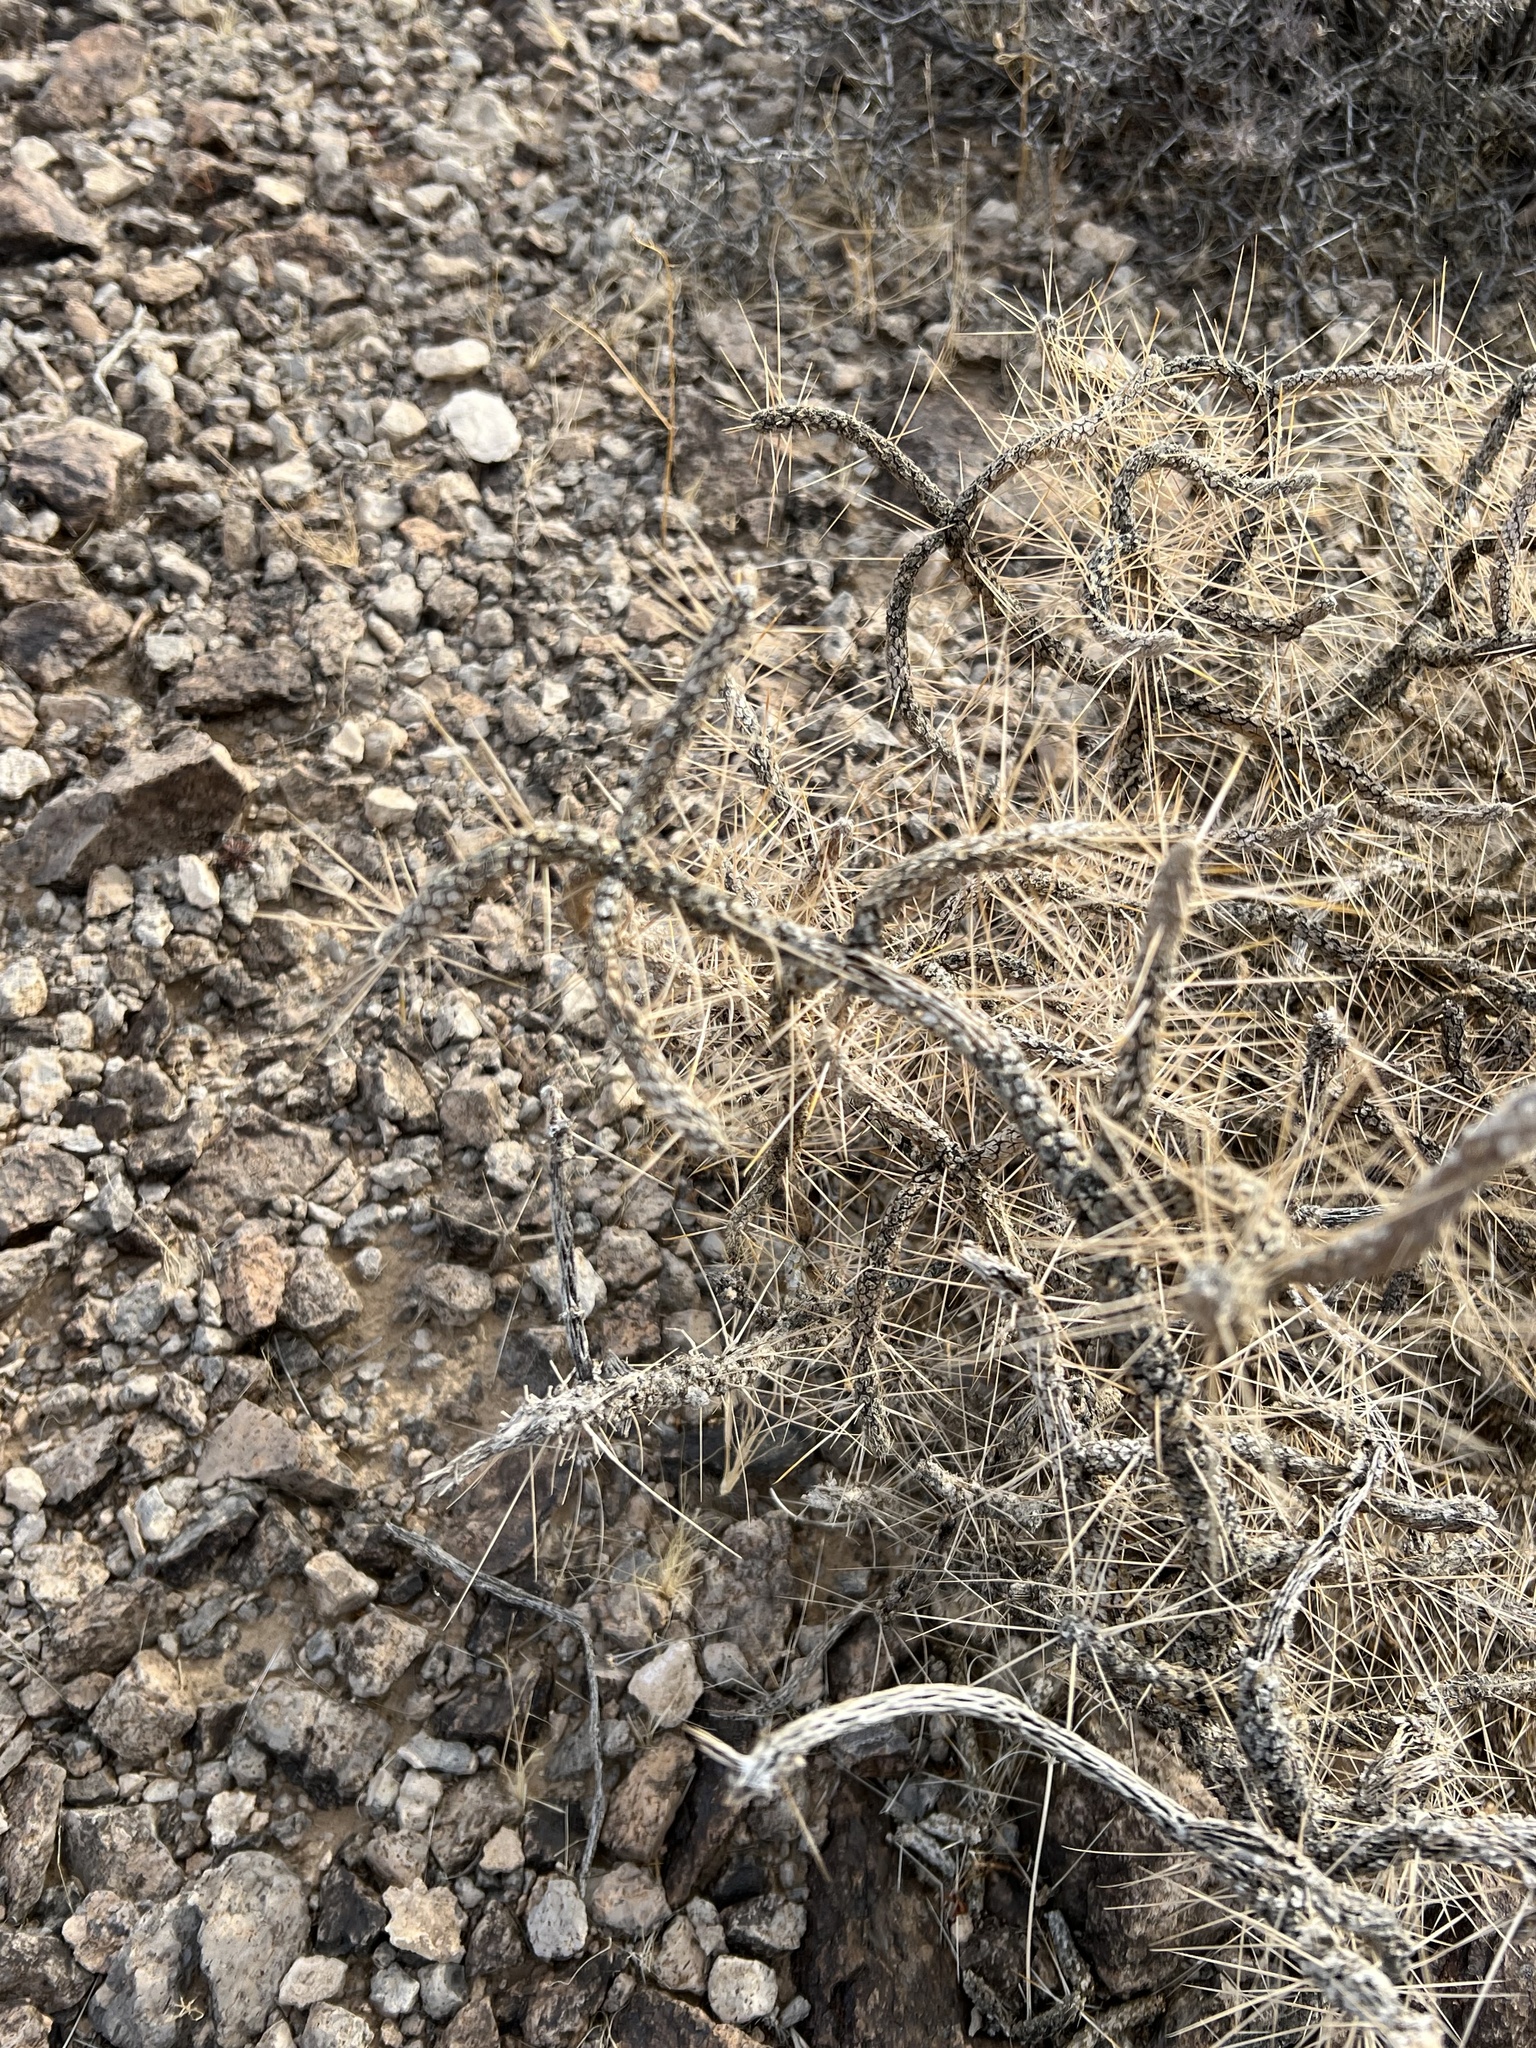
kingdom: Plantae
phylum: Tracheophyta
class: Magnoliopsida
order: Caryophyllales
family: Cactaceae
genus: Cylindropuntia
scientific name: Cylindropuntia ramosissima
